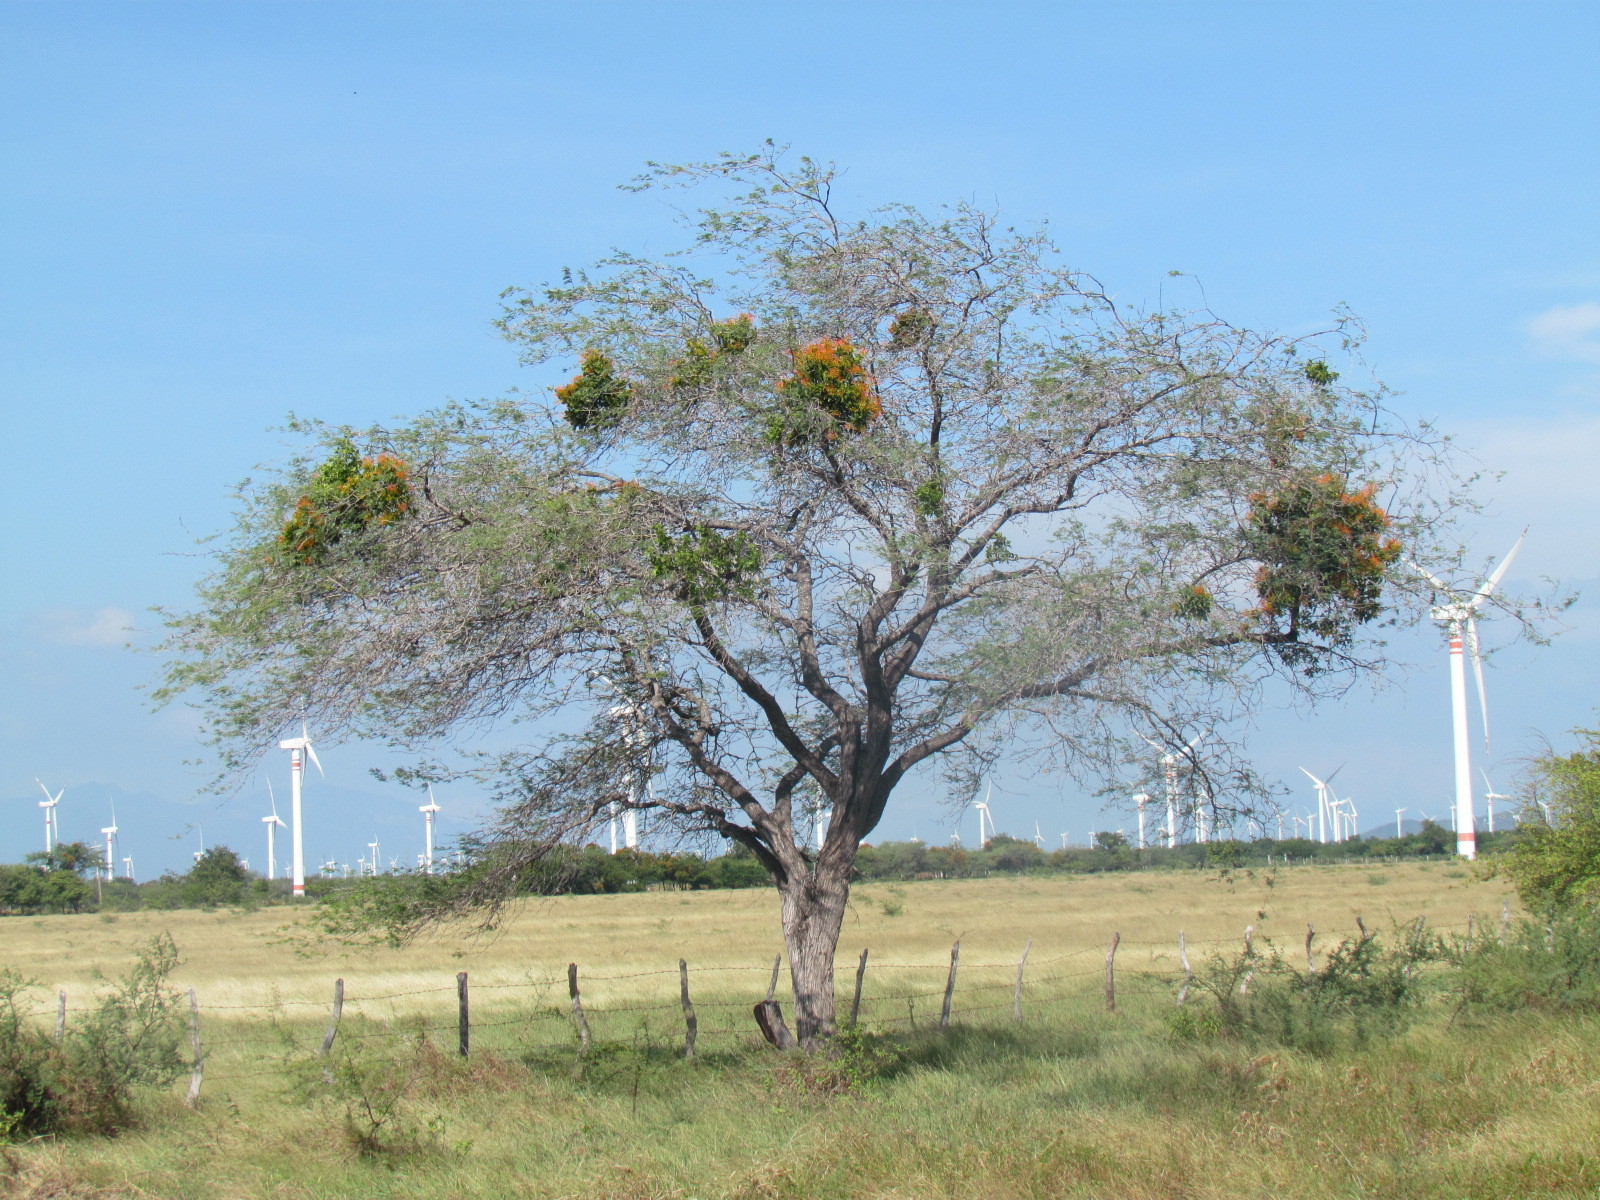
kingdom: Plantae
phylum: Tracheophyta
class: Magnoliopsida
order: Fabales
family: Fabaceae
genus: Prosopis
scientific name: Prosopis laevigata
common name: Smooth mesquite
